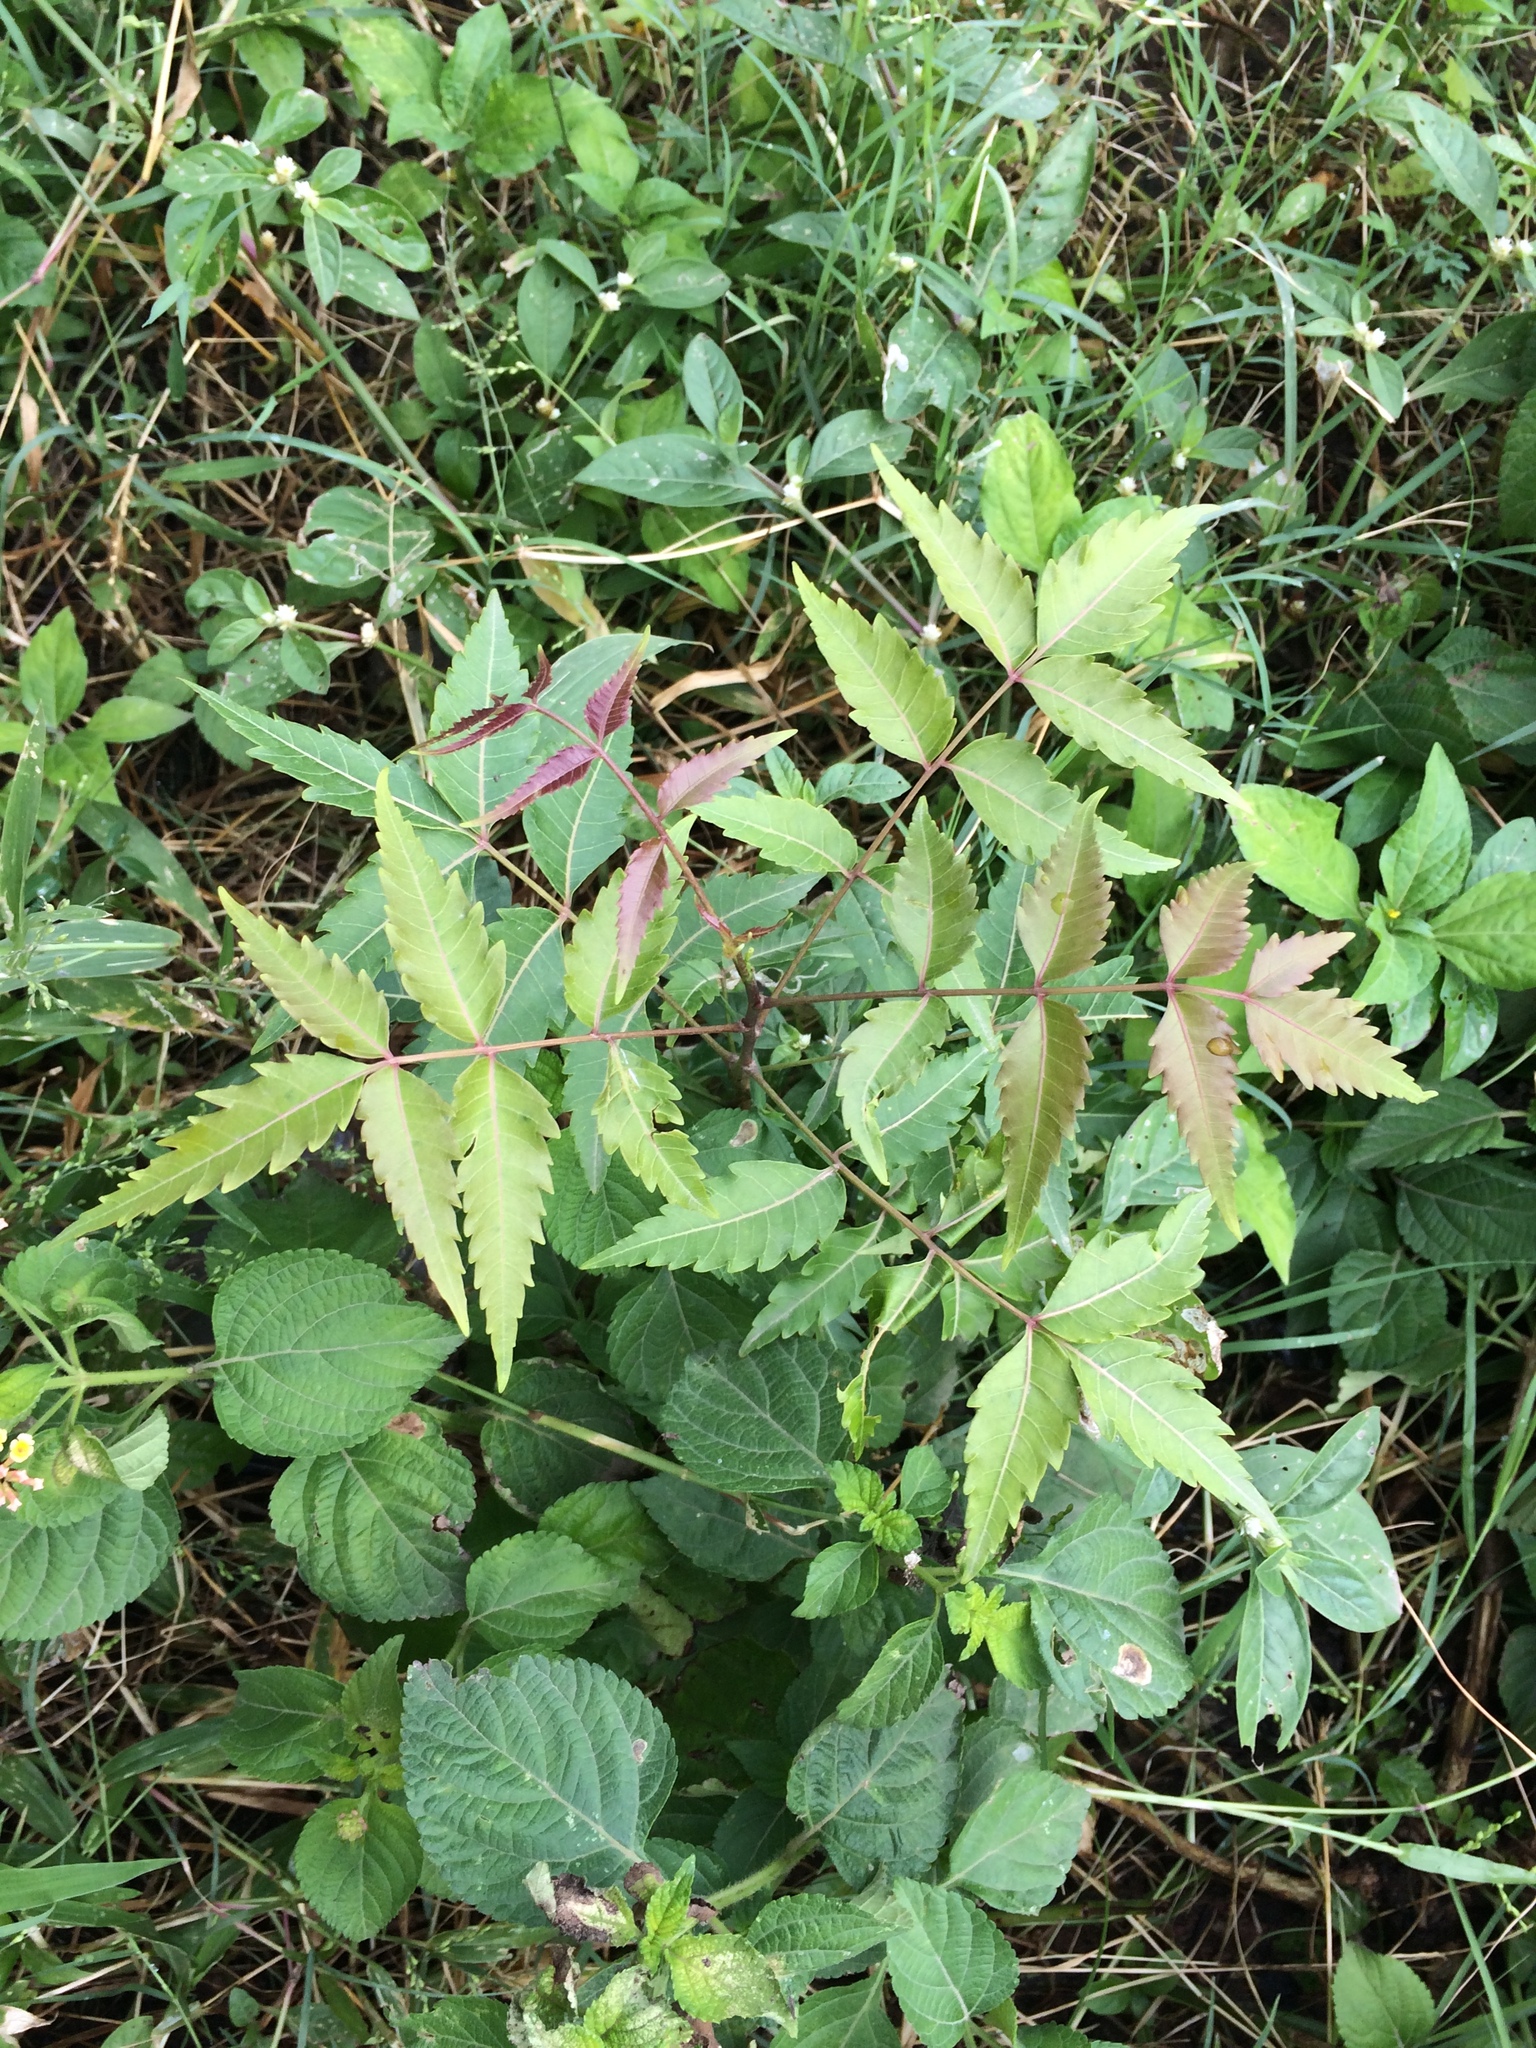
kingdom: Plantae
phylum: Tracheophyta
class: Magnoliopsida
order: Sapindales
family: Meliaceae
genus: Azadirachta
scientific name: Azadirachta indica
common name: Neem
